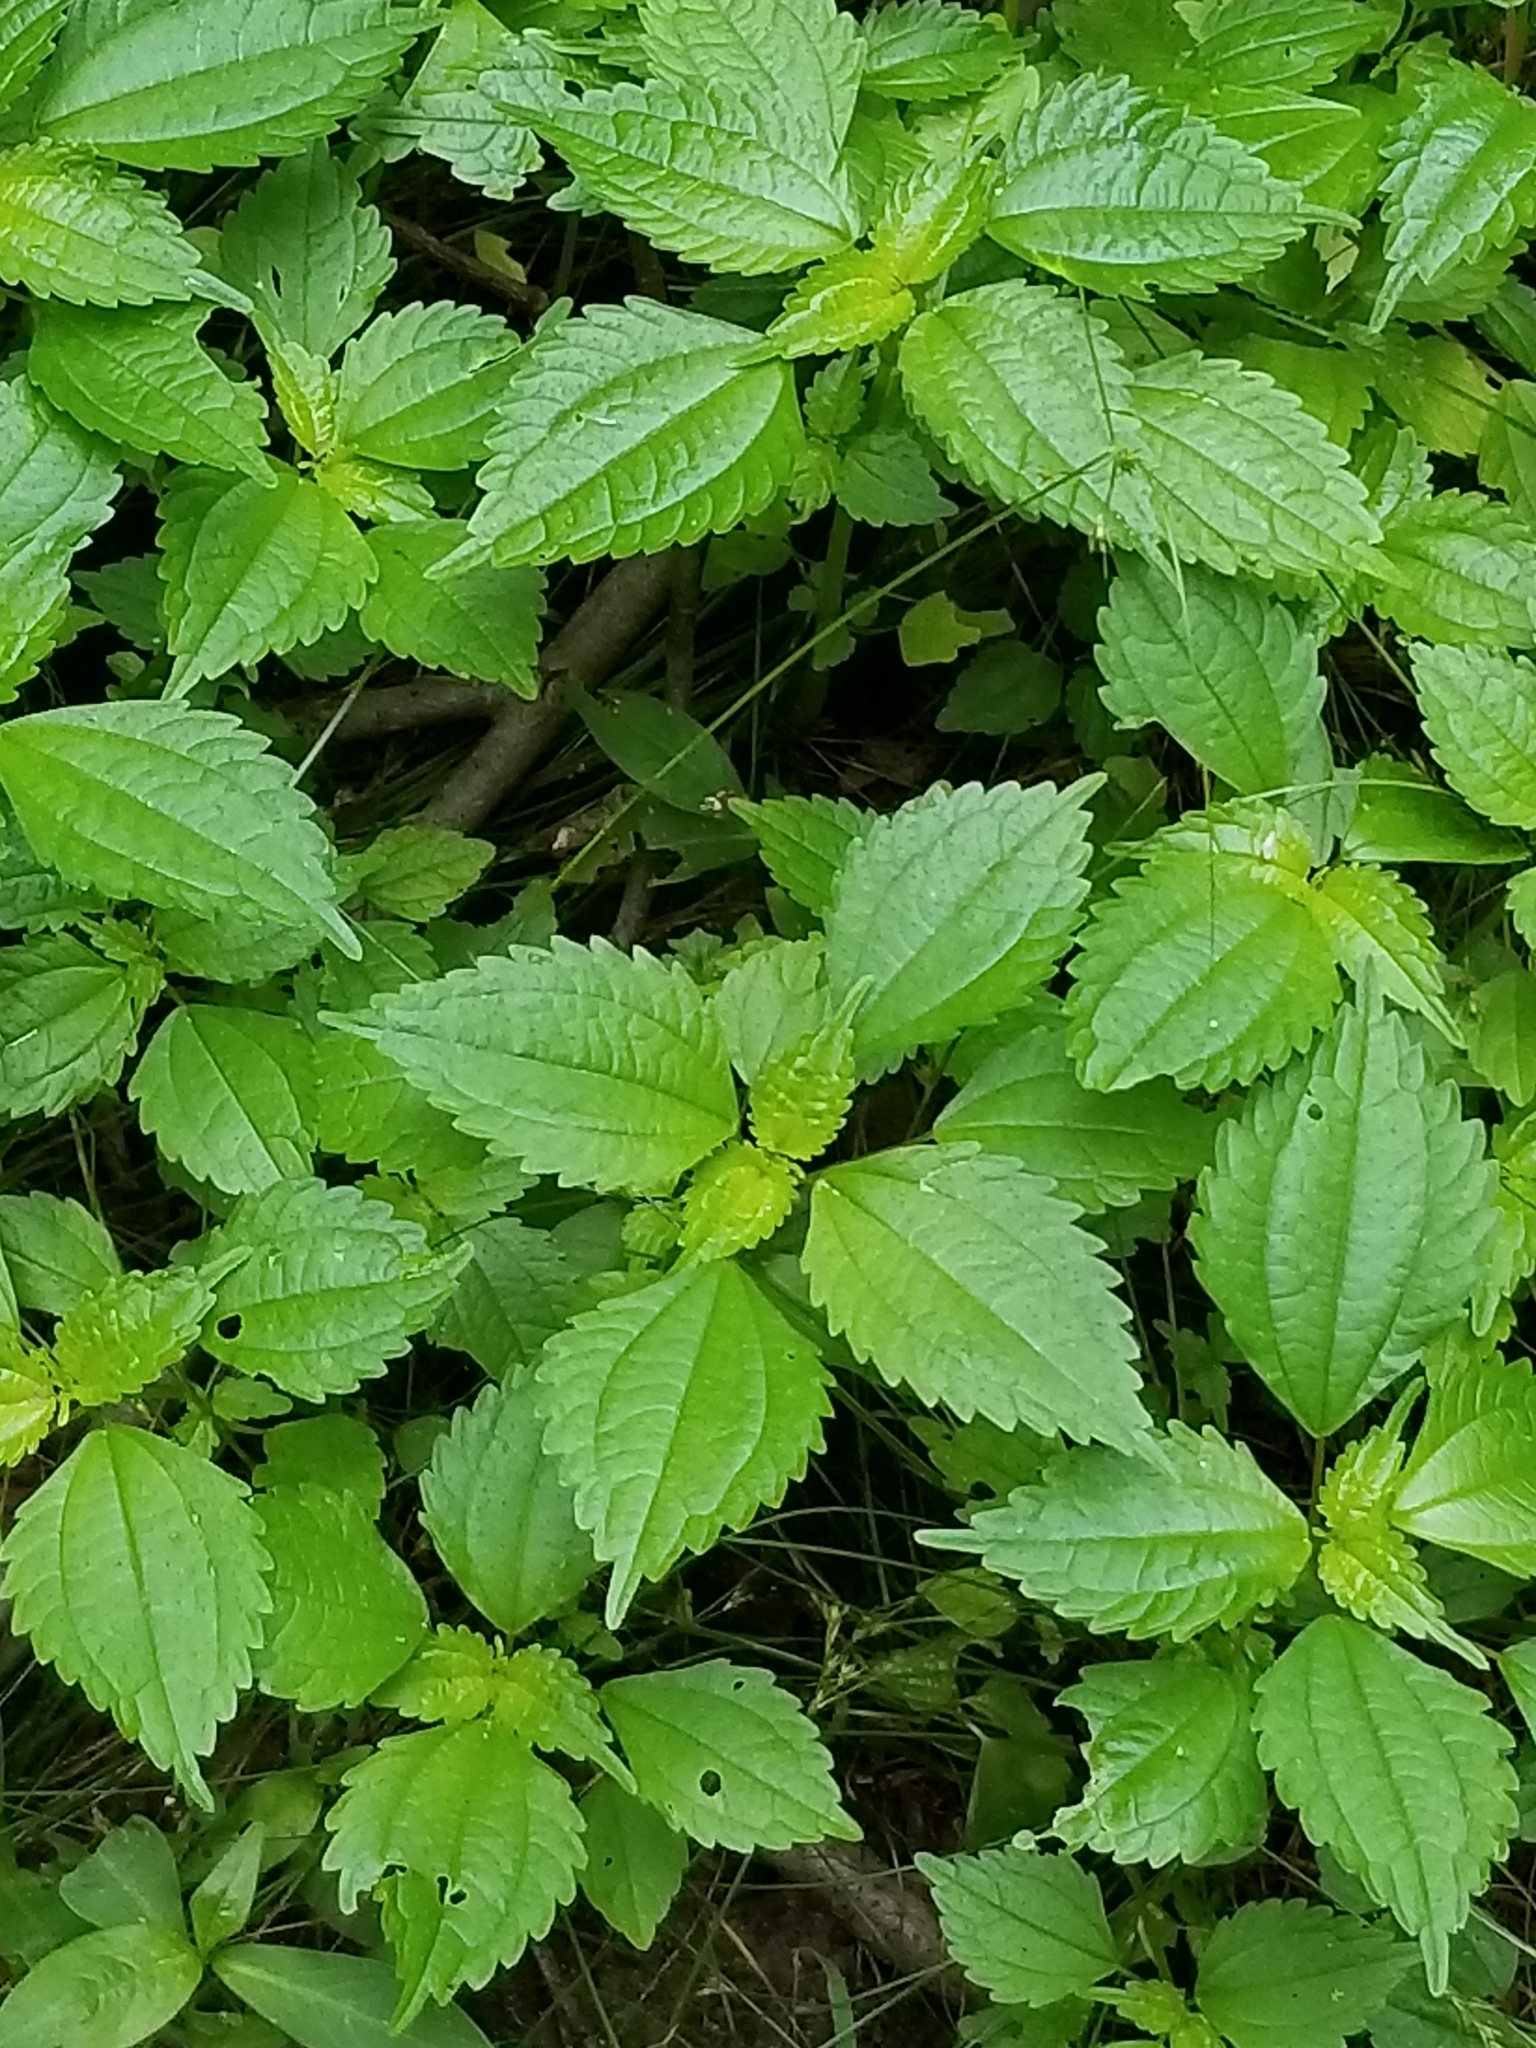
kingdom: Plantae
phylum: Tracheophyta
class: Magnoliopsida
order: Rosales
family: Urticaceae
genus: Pilea
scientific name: Pilea pumila
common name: Clearweed
